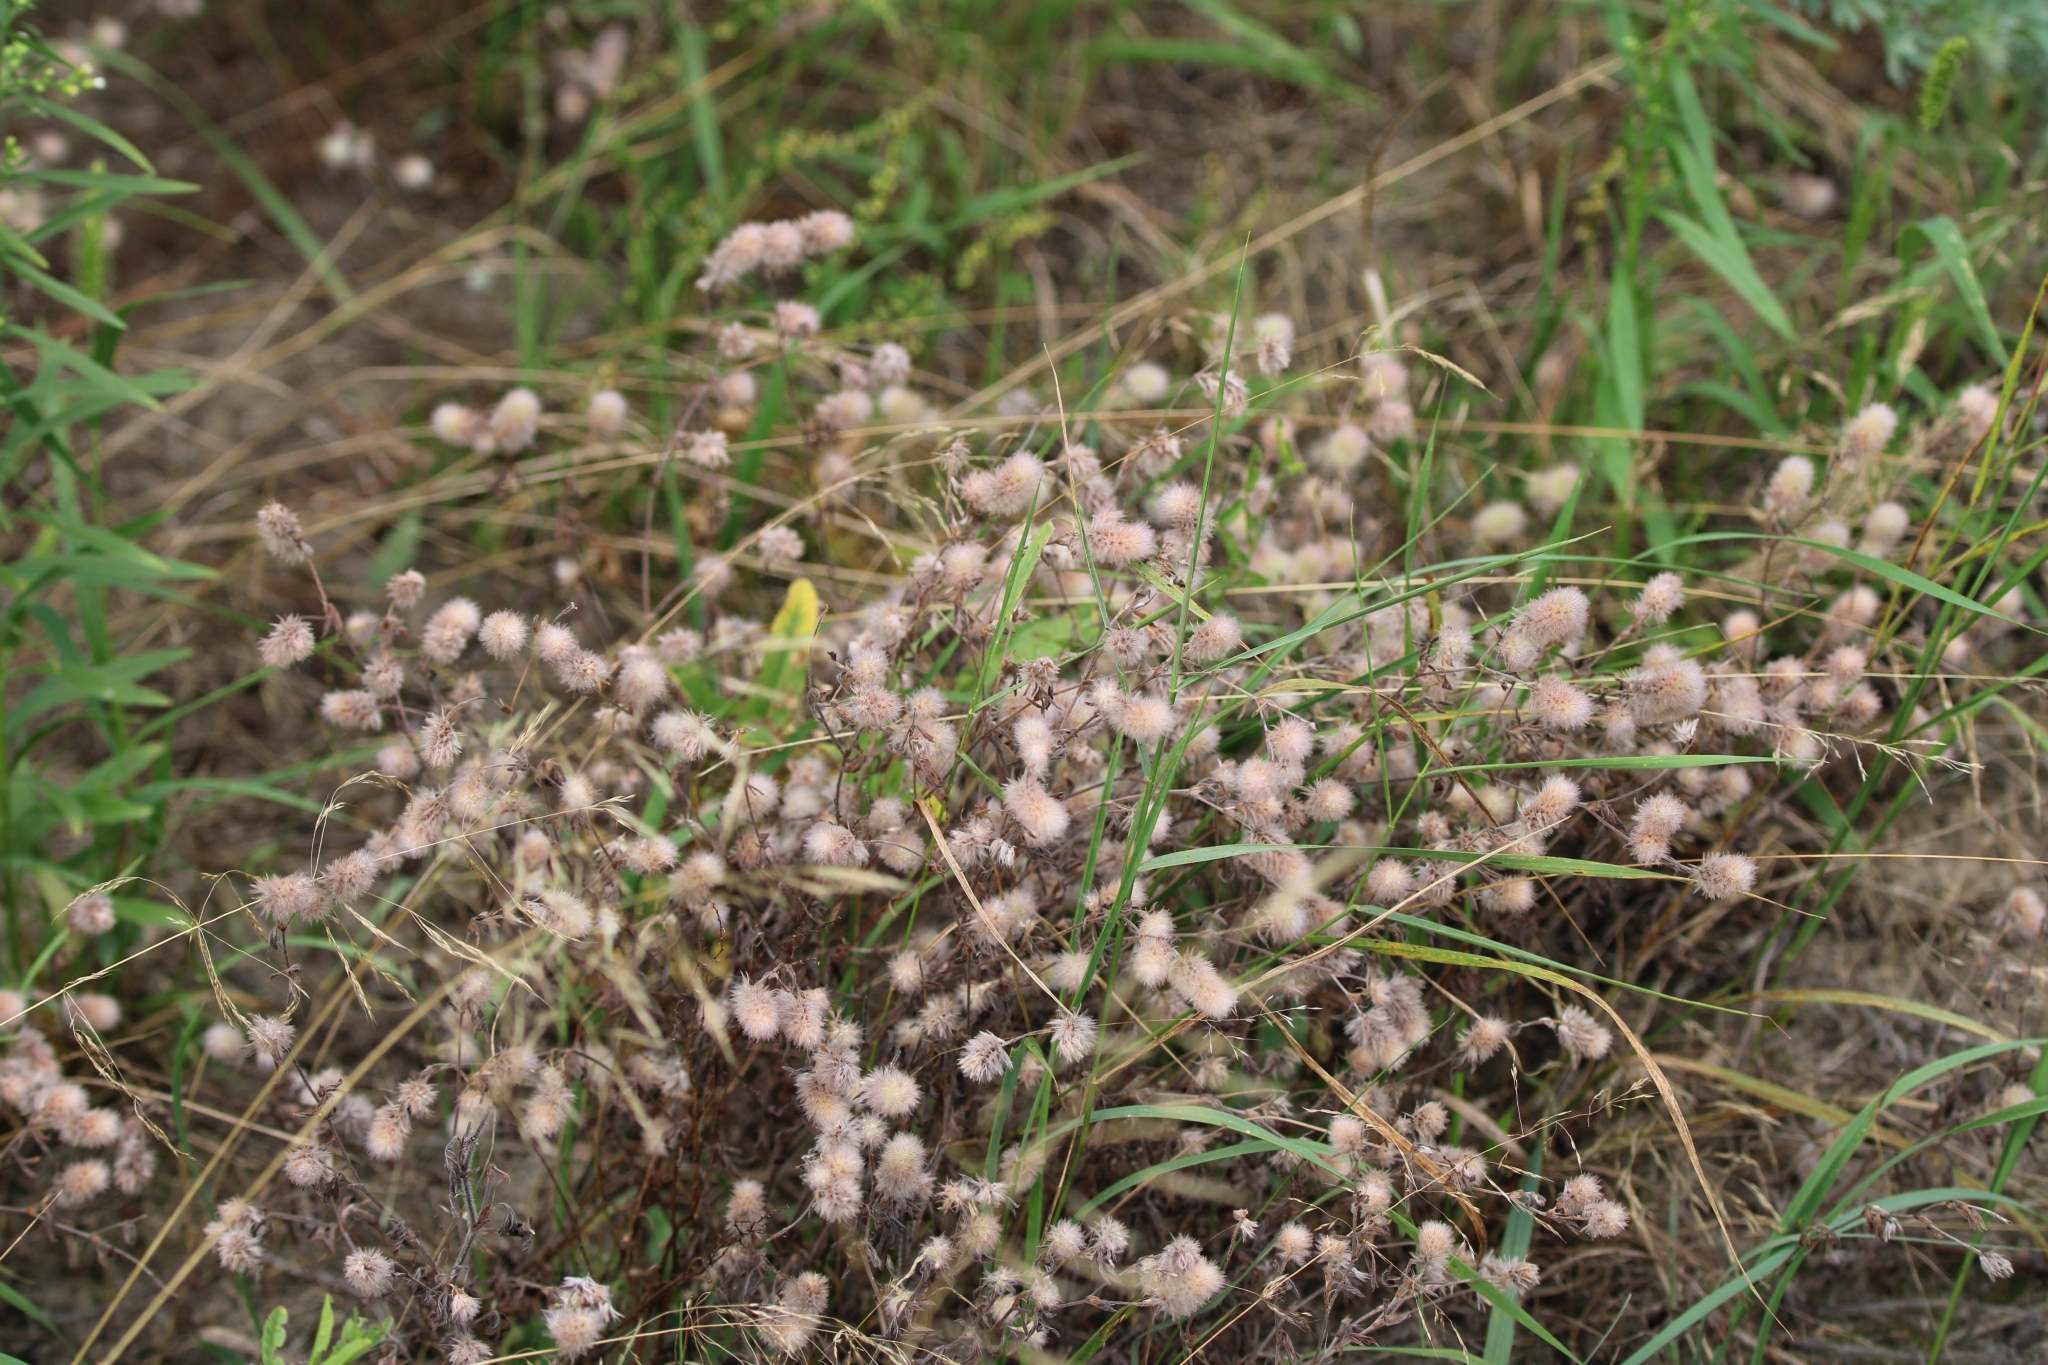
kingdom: Plantae
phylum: Tracheophyta
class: Magnoliopsida
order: Fabales
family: Fabaceae
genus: Trifolium
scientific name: Trifolium arvense
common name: Hare's-foot clover
